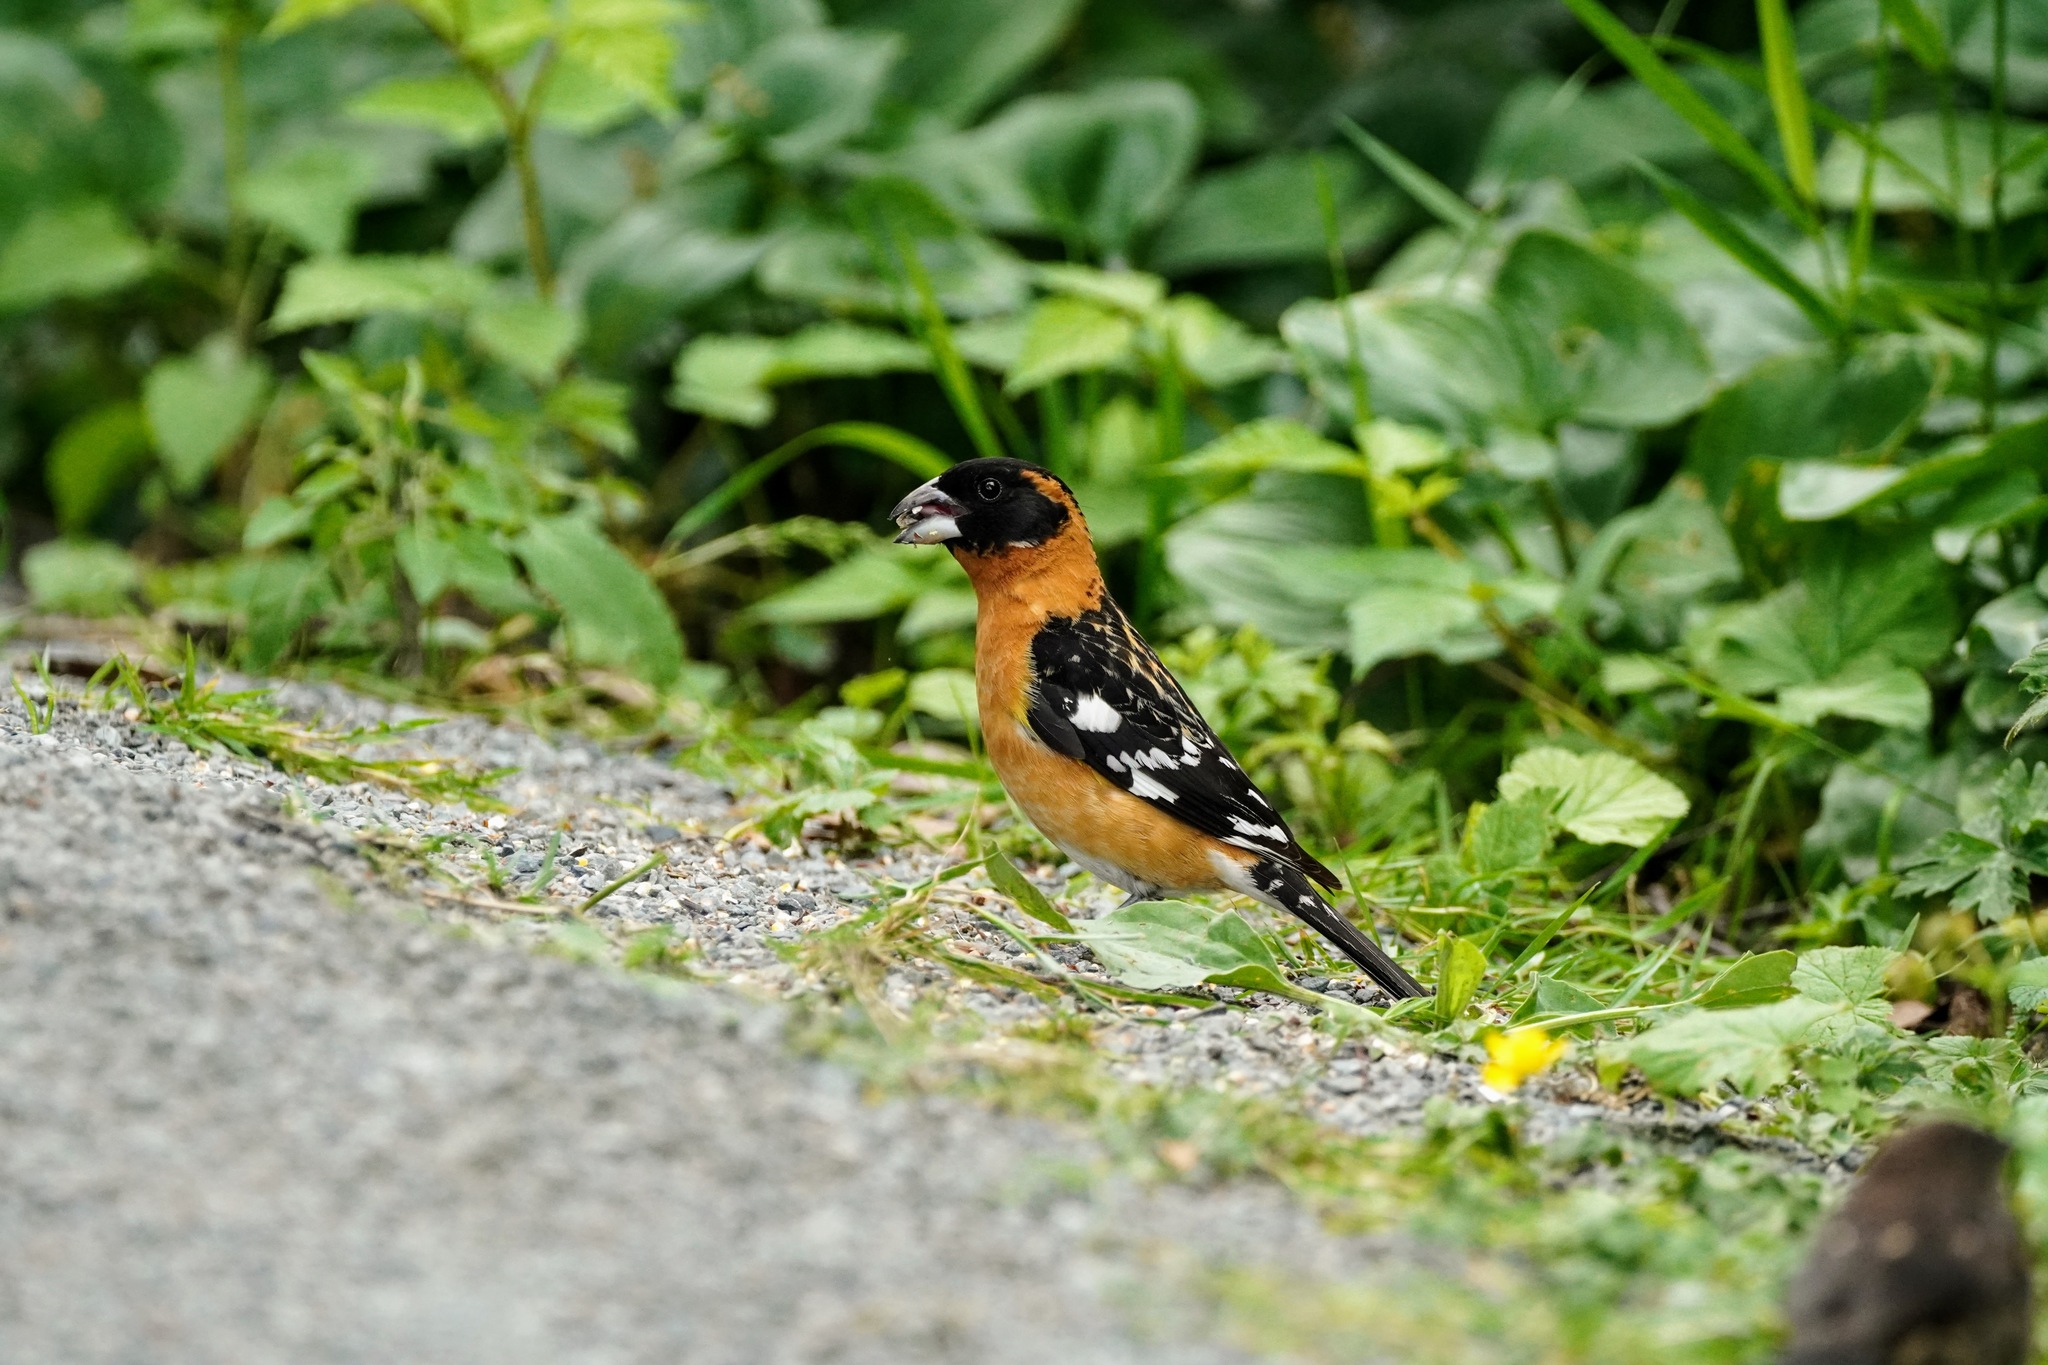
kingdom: Animalia
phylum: Chordata
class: Aves
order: Passeriformes
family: Cardinalidae
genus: Pheucticus
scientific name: Pheucticus melanocephalus
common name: Black-headed grosbeak
